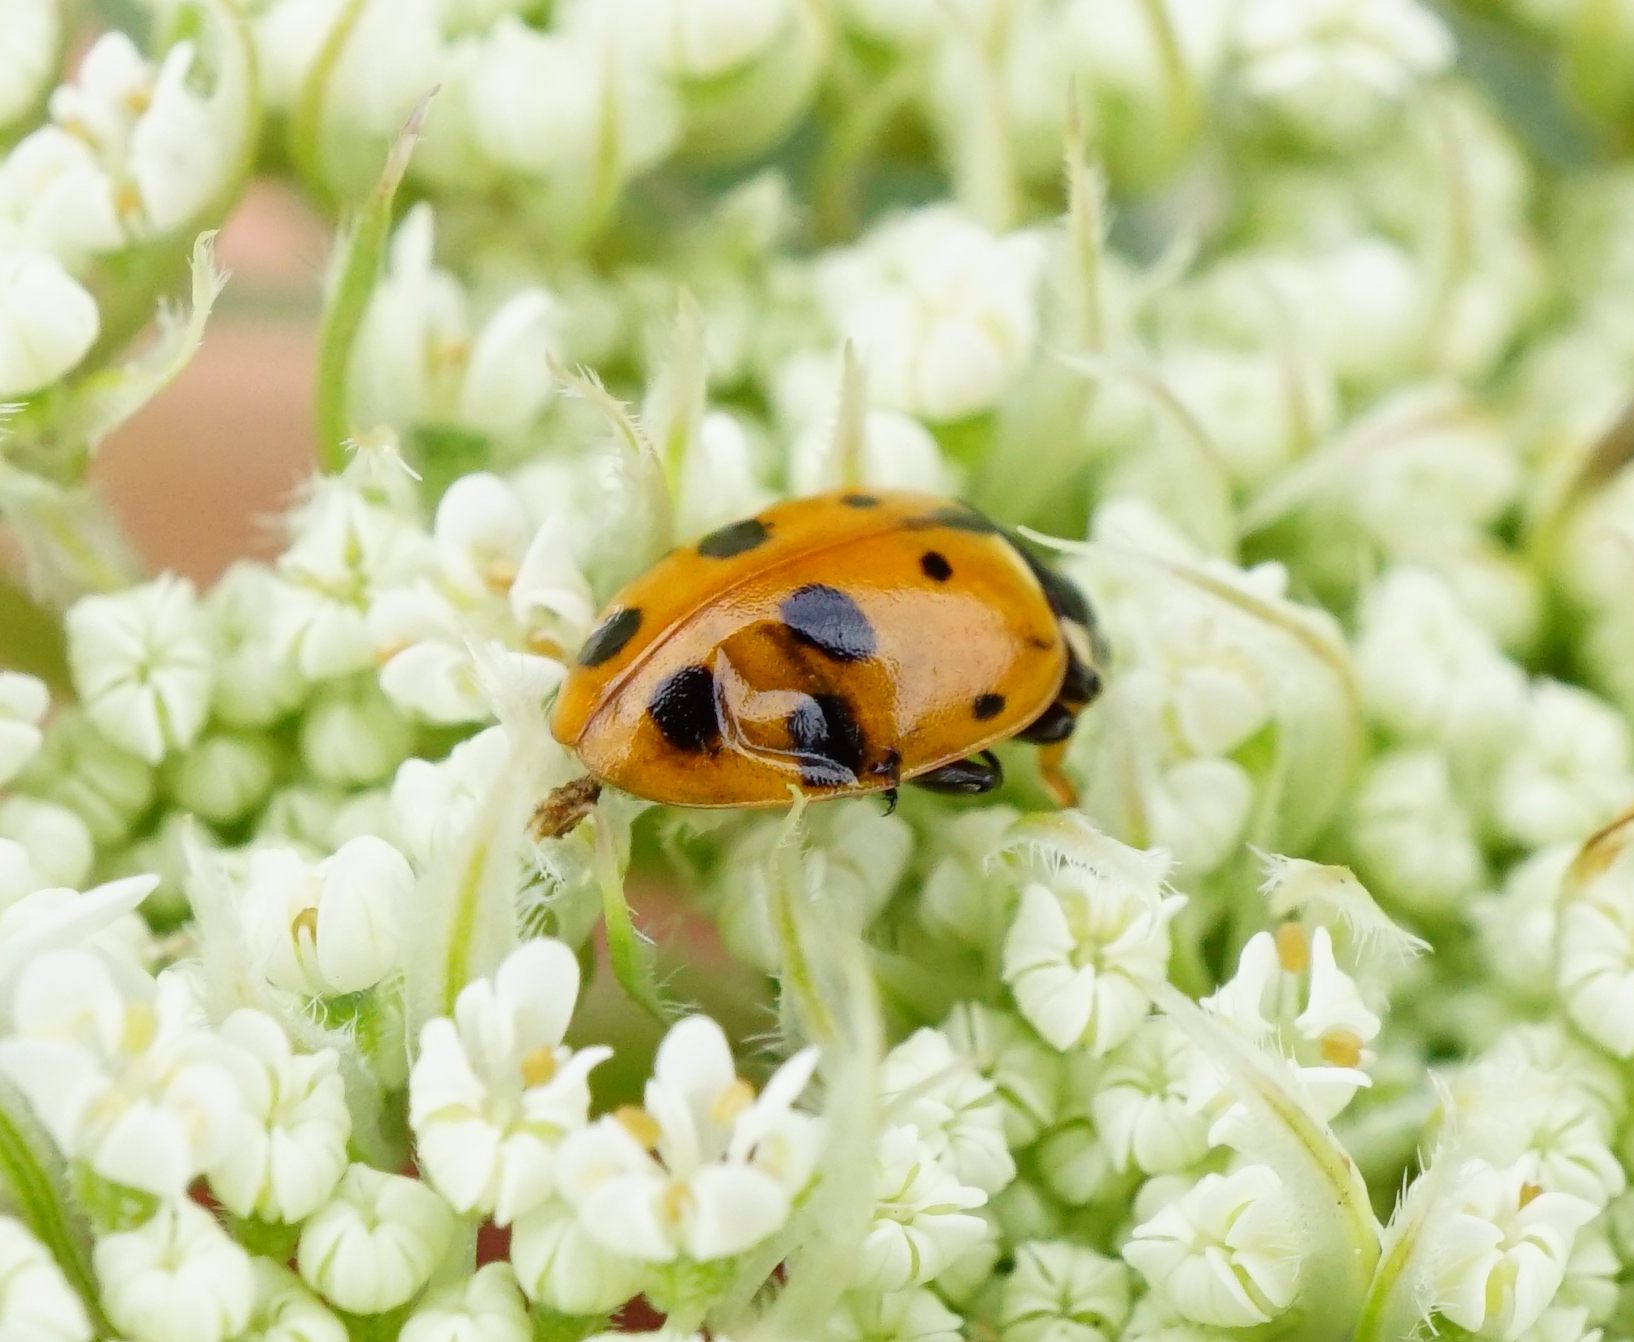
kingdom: Animalia
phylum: Arthropoda
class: Insecta
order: Coleoptera
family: Coccinellidae
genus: Hippodamia
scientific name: Hippodamia variegata
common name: Ladybird beetle
